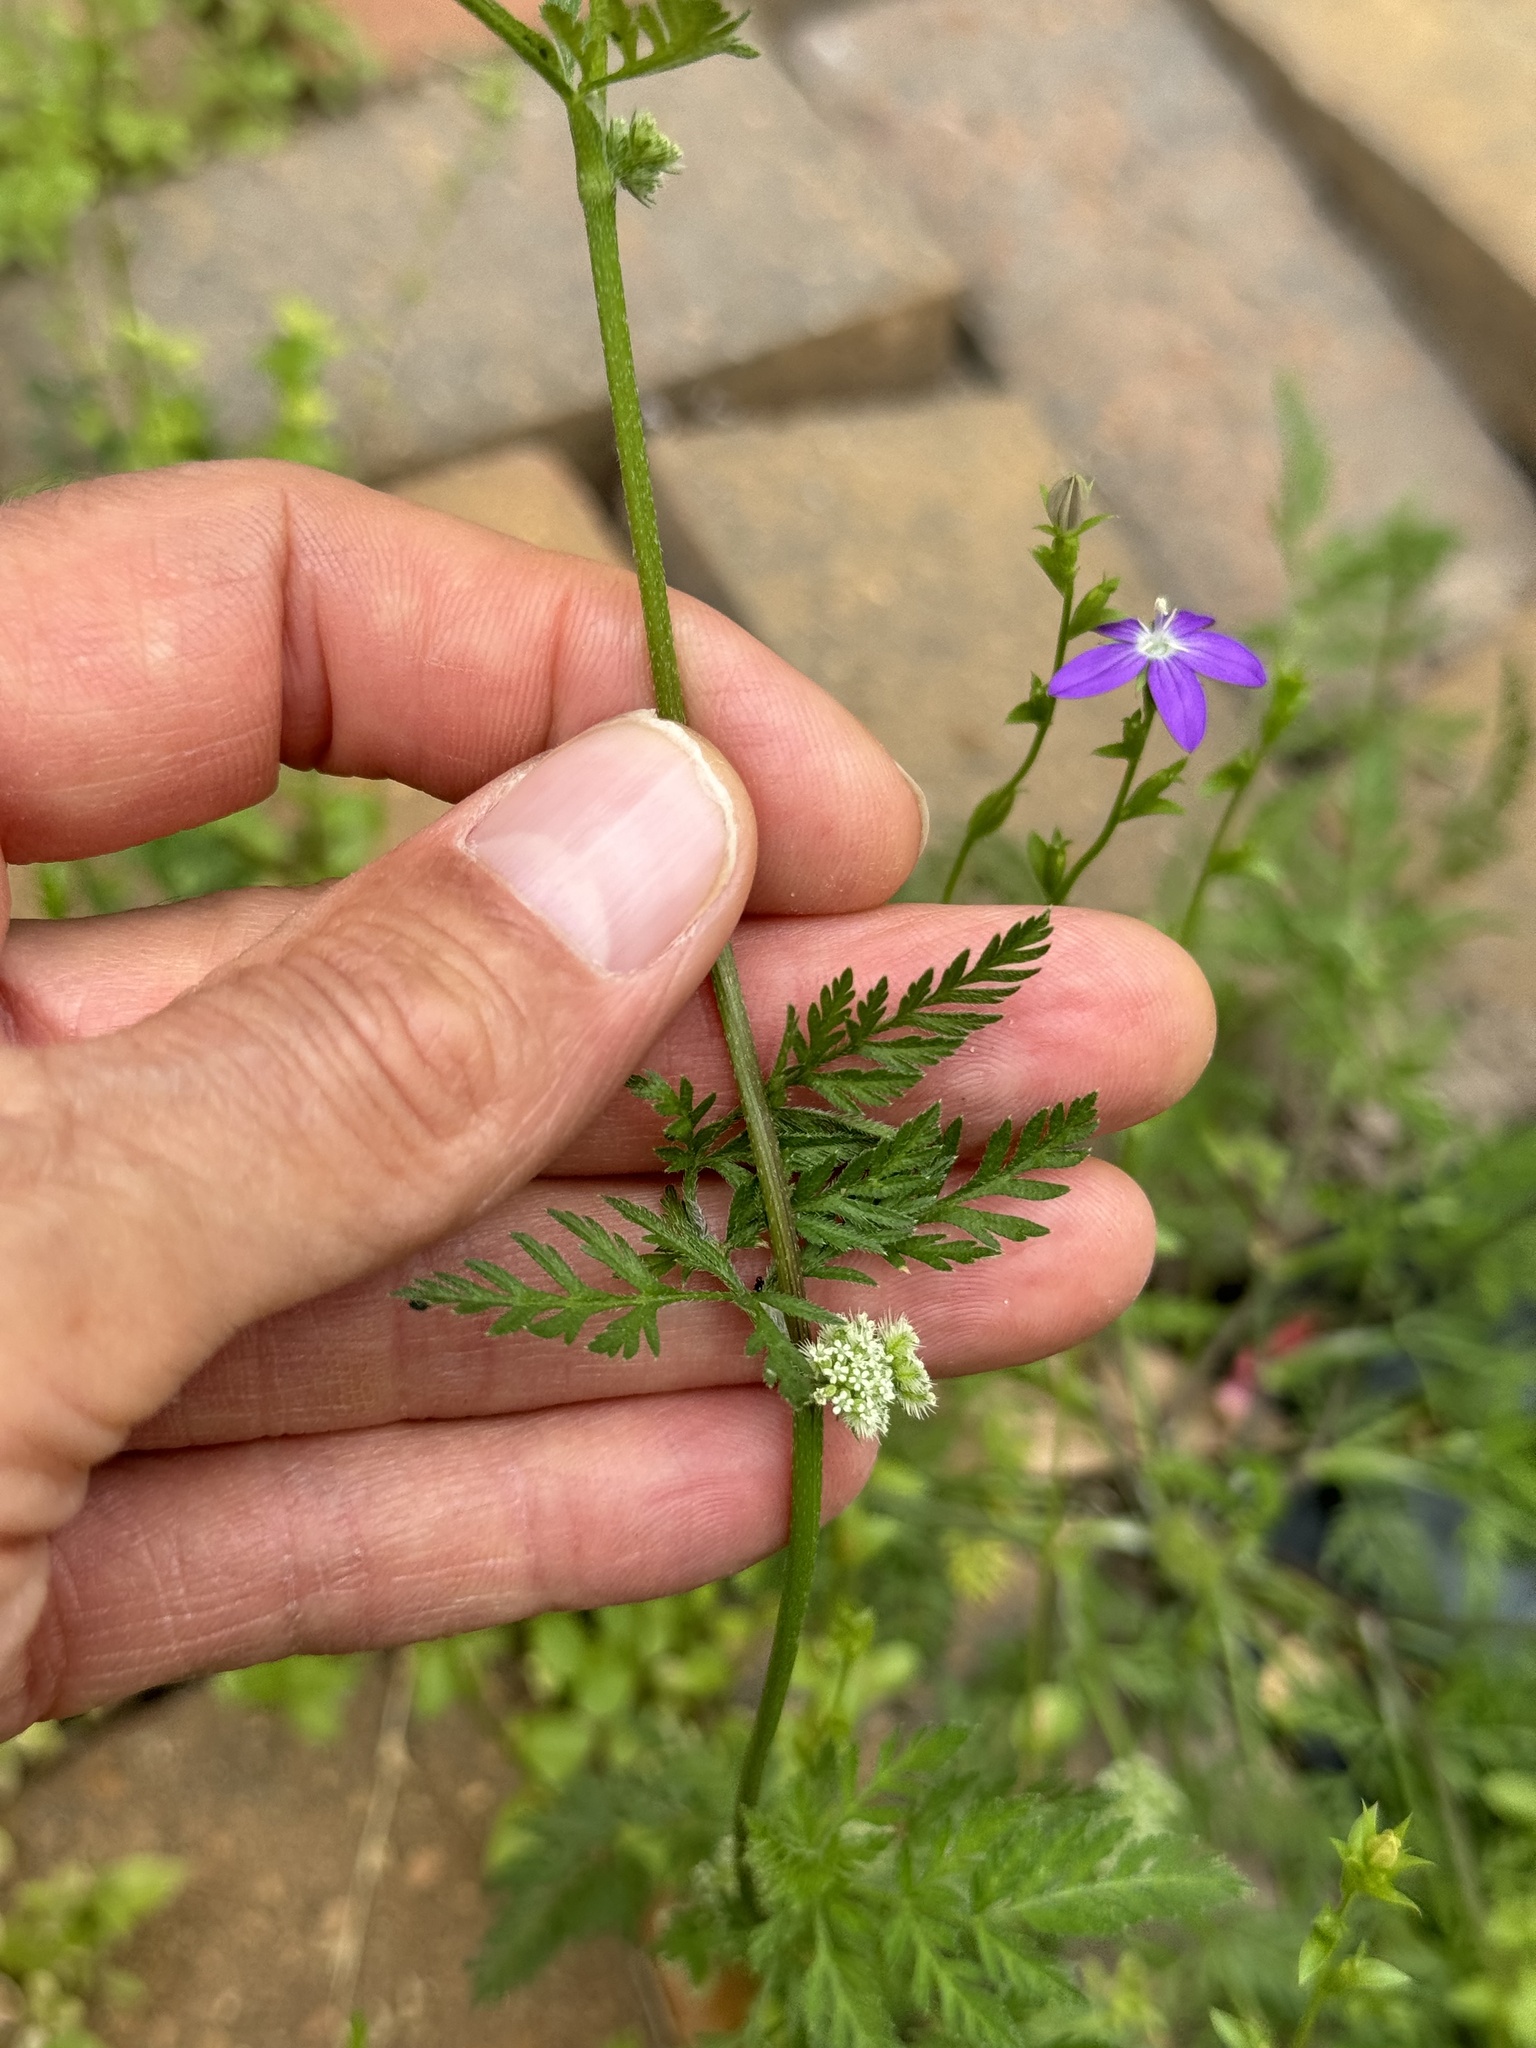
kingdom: Plantae
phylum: Tracheophyta
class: Magnoliopsida
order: Apiales
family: Apiaceae
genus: Torilis
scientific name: Torilis nodosa
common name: Knotted hedge-parsley
